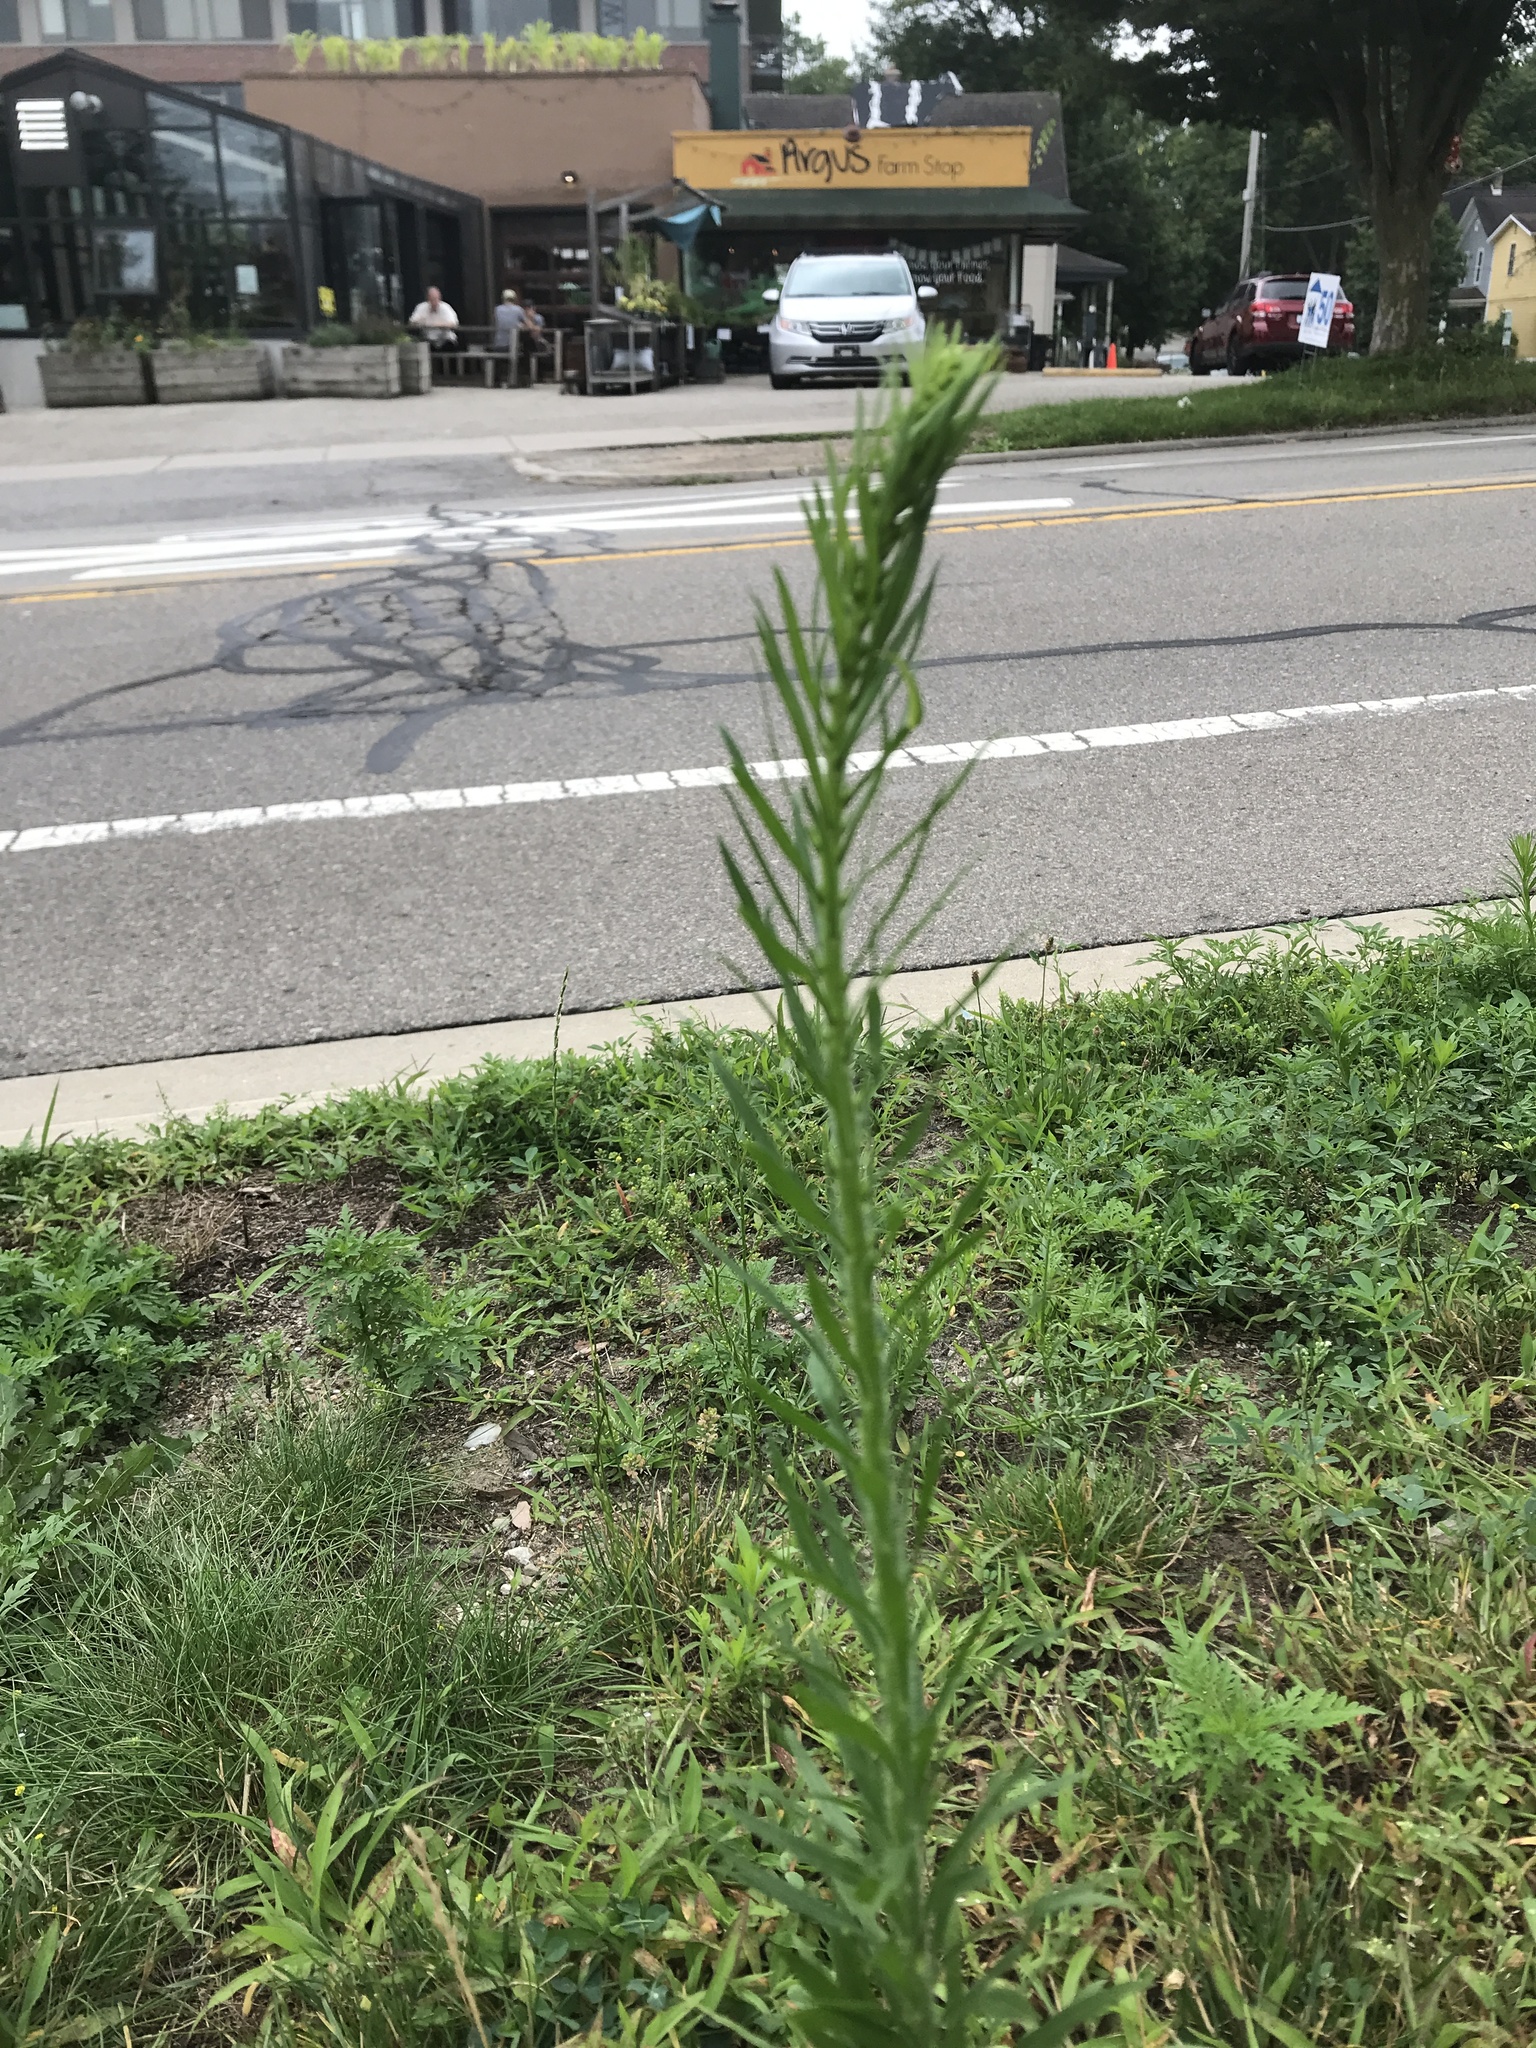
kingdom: Plantae
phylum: Tracheophyta
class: Magnoliopsida
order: Asterales
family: Asteraceae
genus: Erigeron
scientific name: Erigeron canadensis
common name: Canadian fleabane
